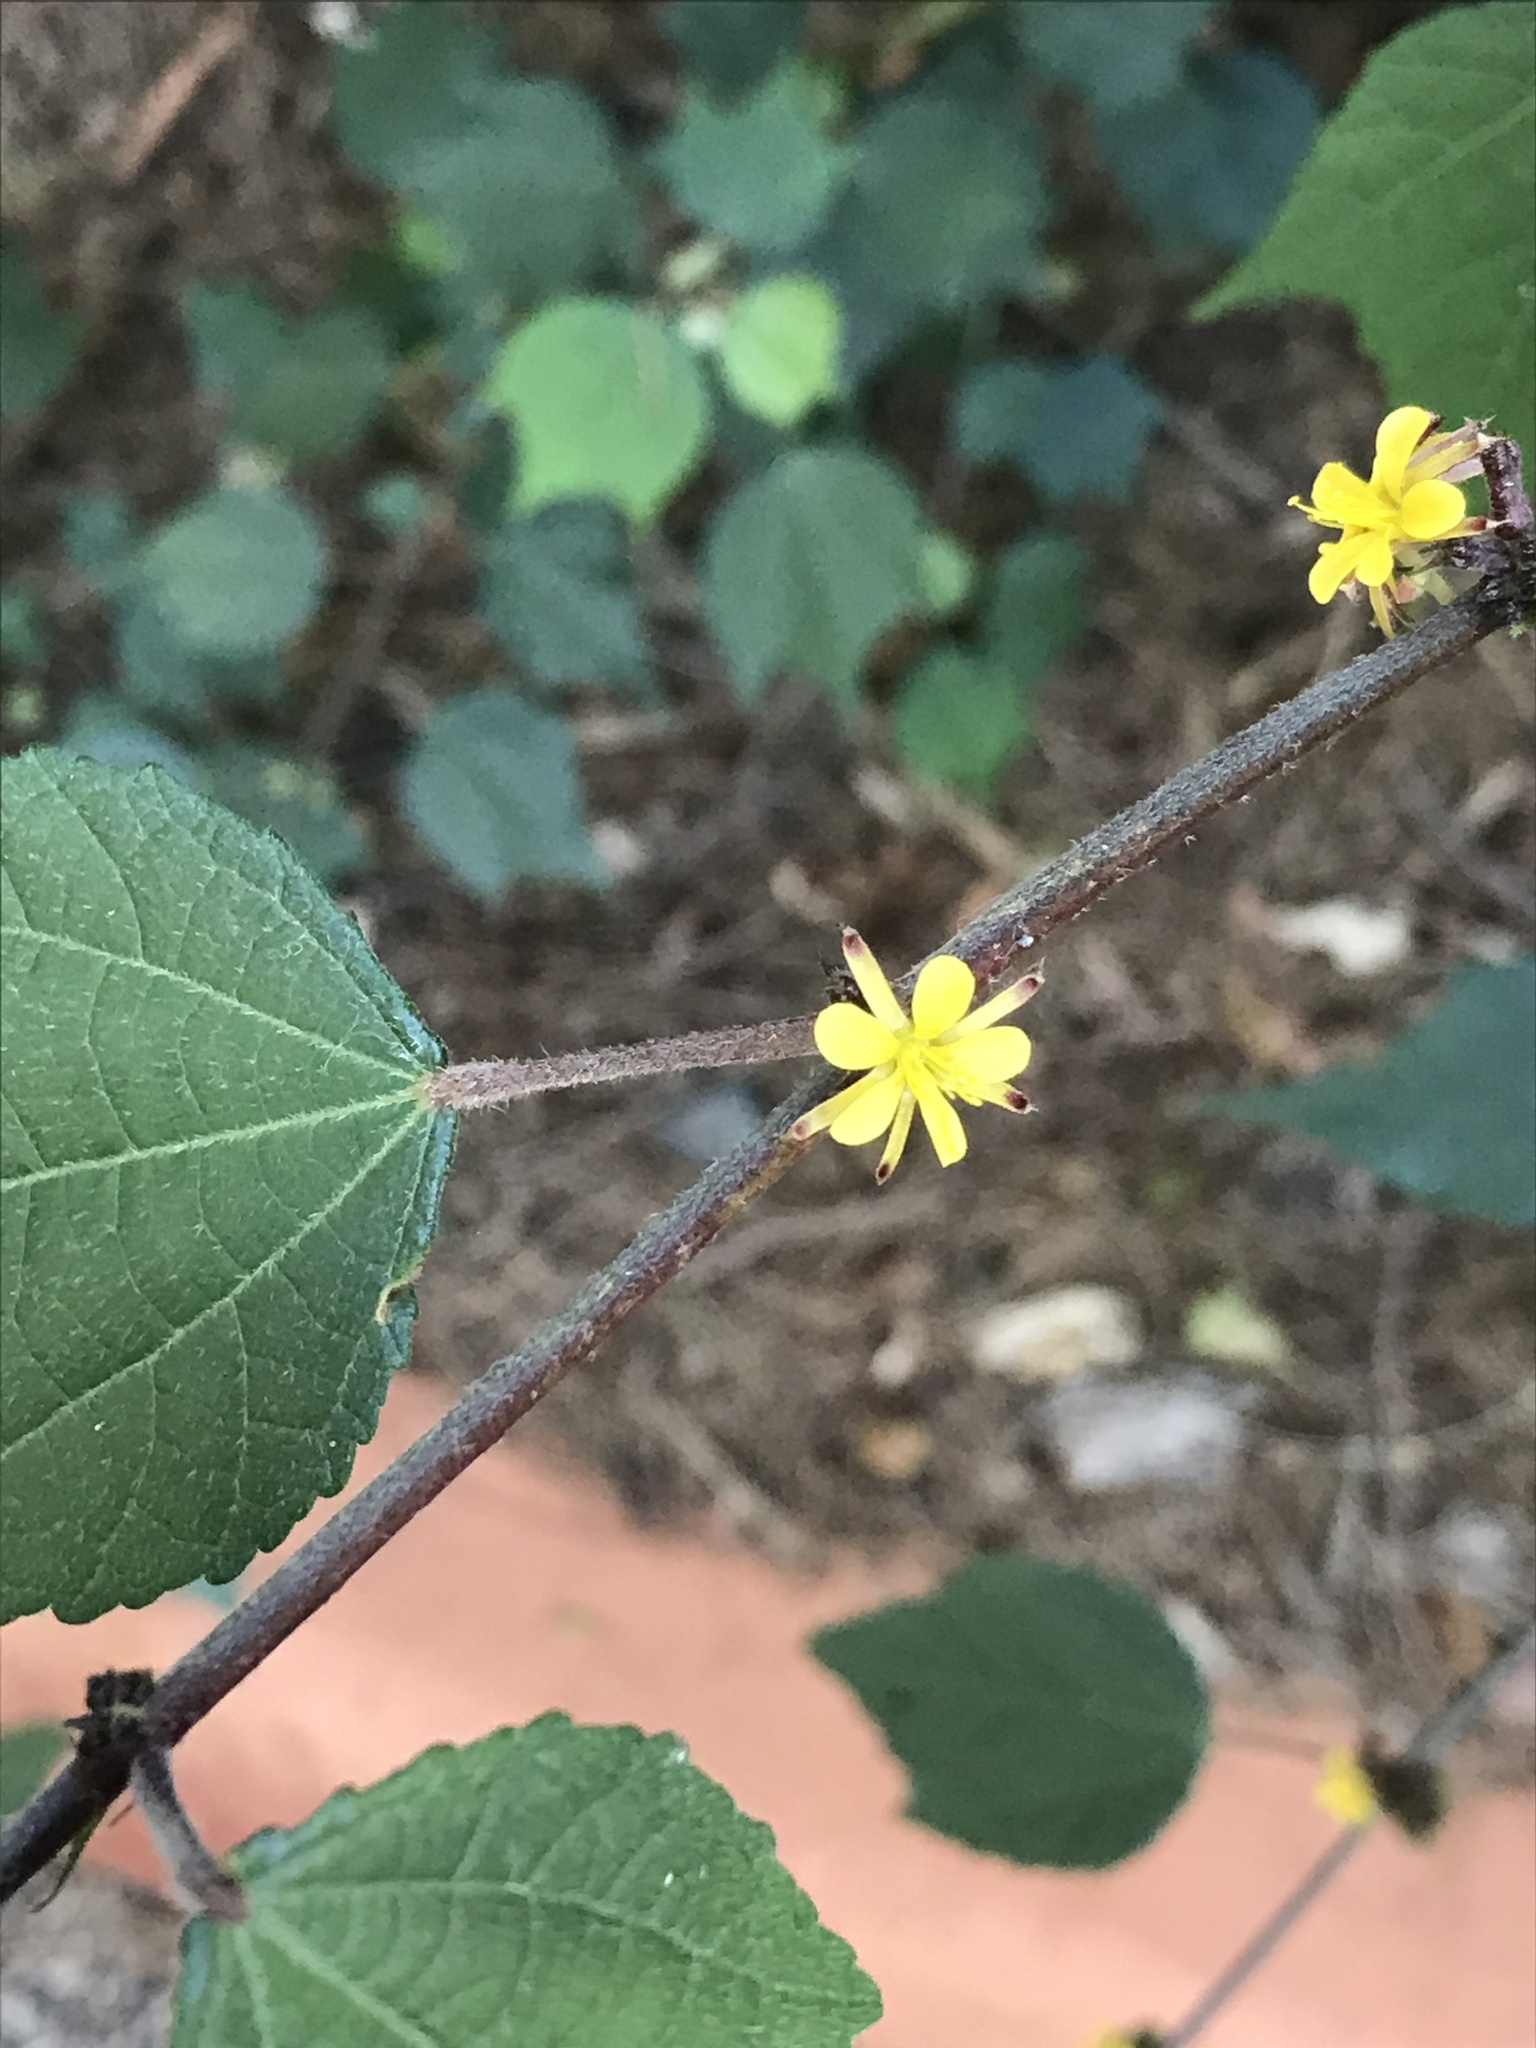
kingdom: Plantae
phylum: Tracheophyta
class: Magnoliopsida
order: Malvales
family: Malvaceae
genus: Triumfetta
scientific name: Triumfetta rhomboidea
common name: Diamond burbark
